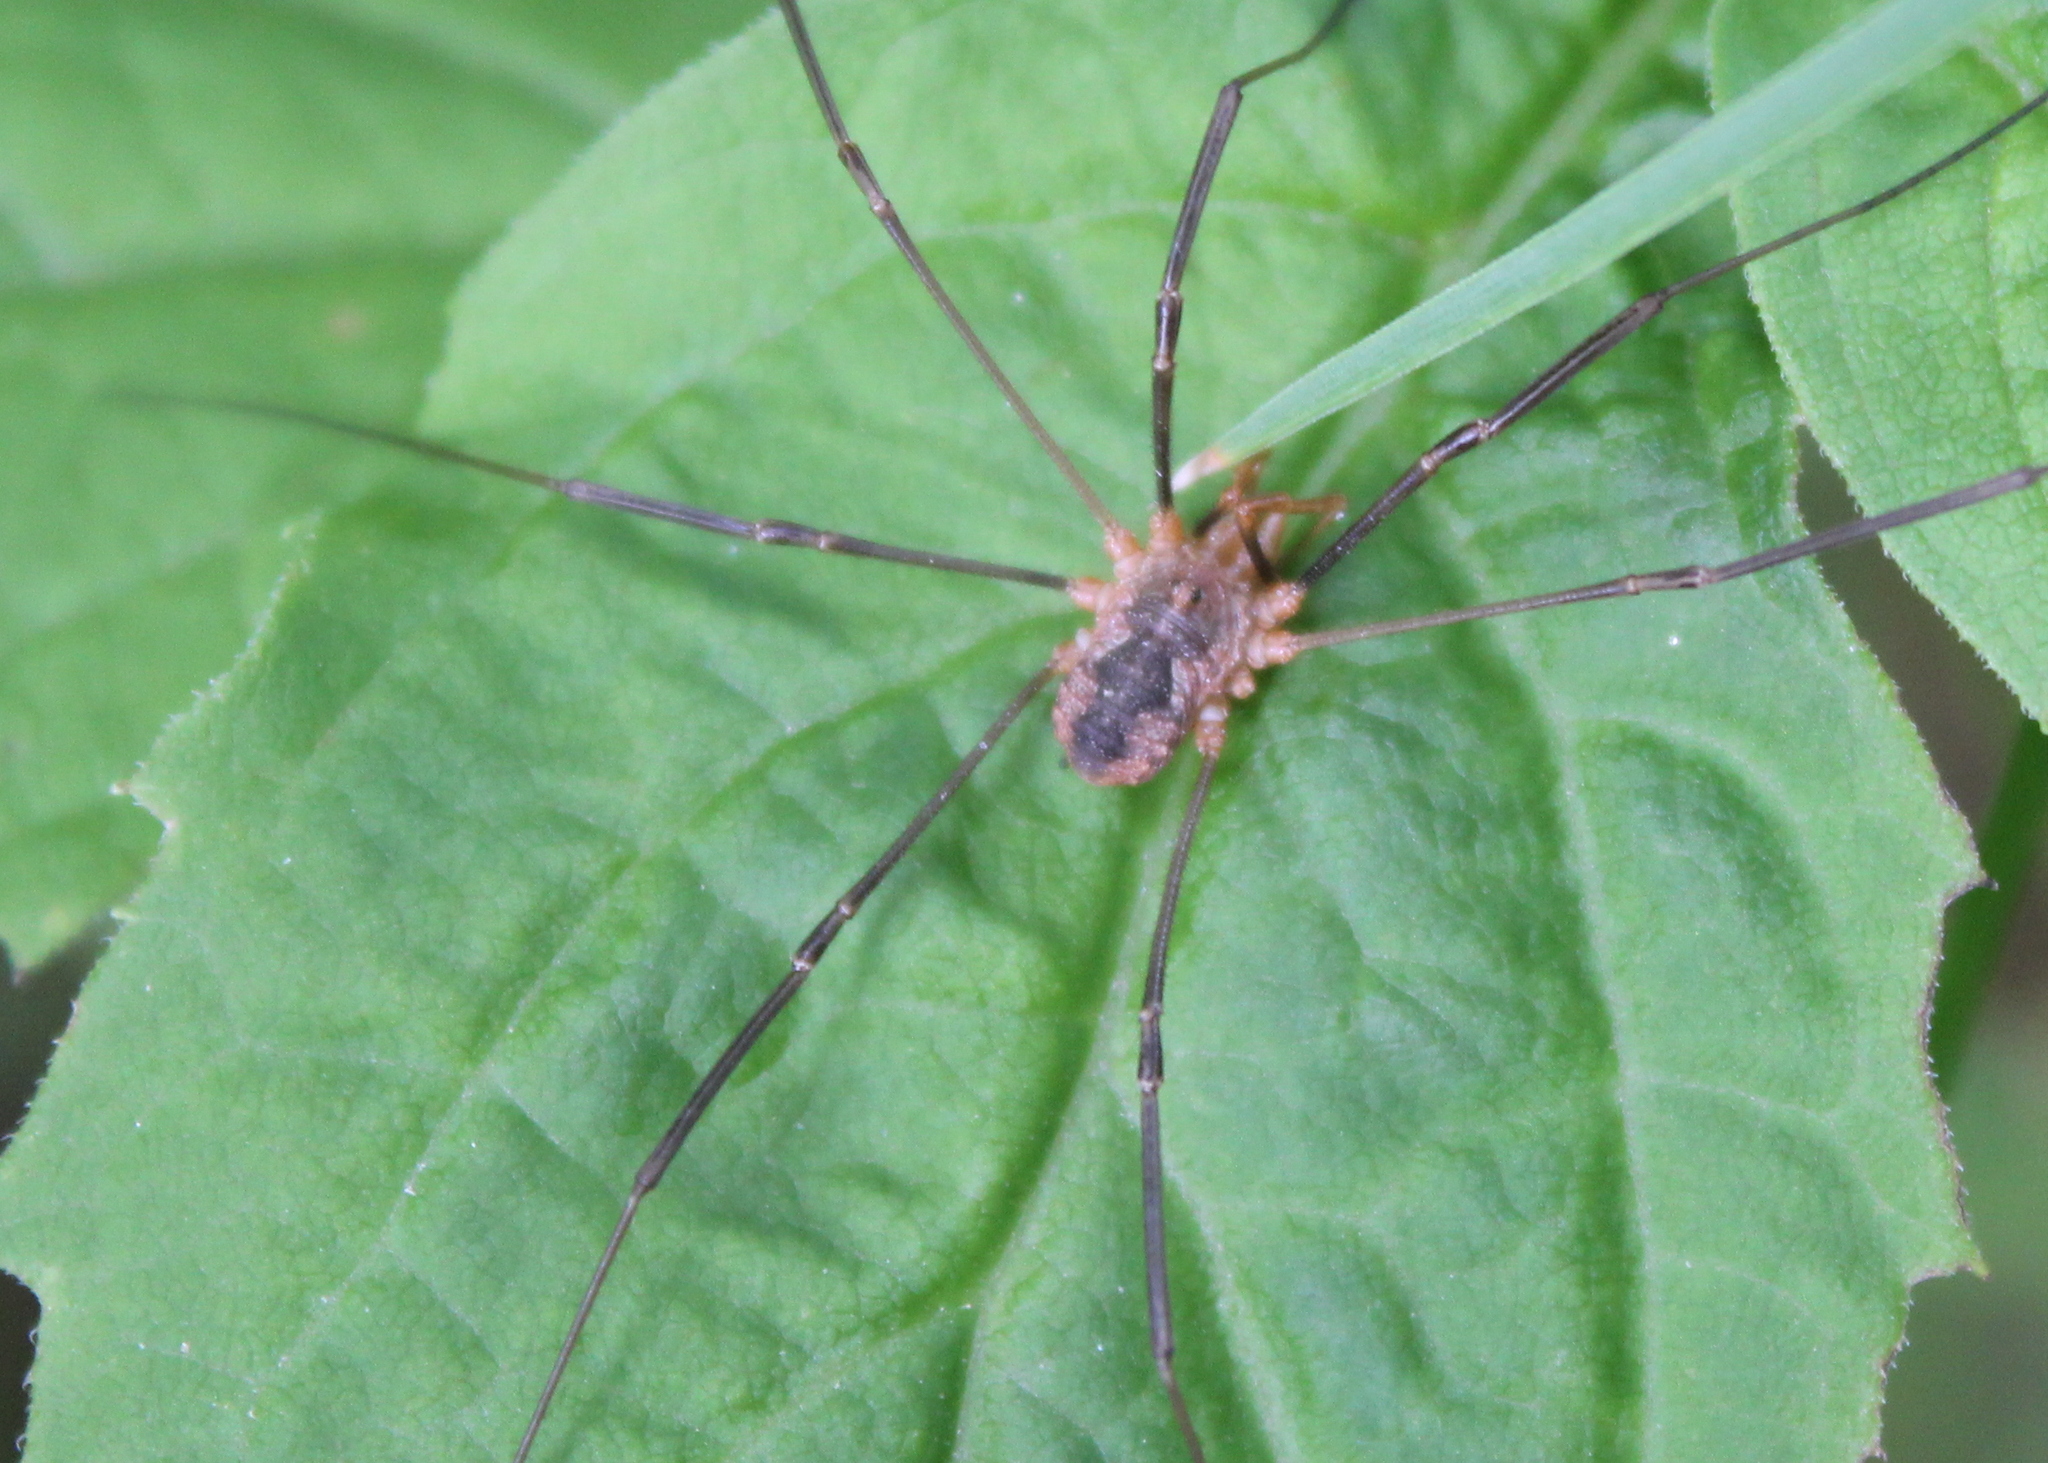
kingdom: Animalia
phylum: Arthropoda
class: Arachnida
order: Opiliones
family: Phalangiidae
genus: Phalangium
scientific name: Phalangium opilio
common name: Daddy longleg
